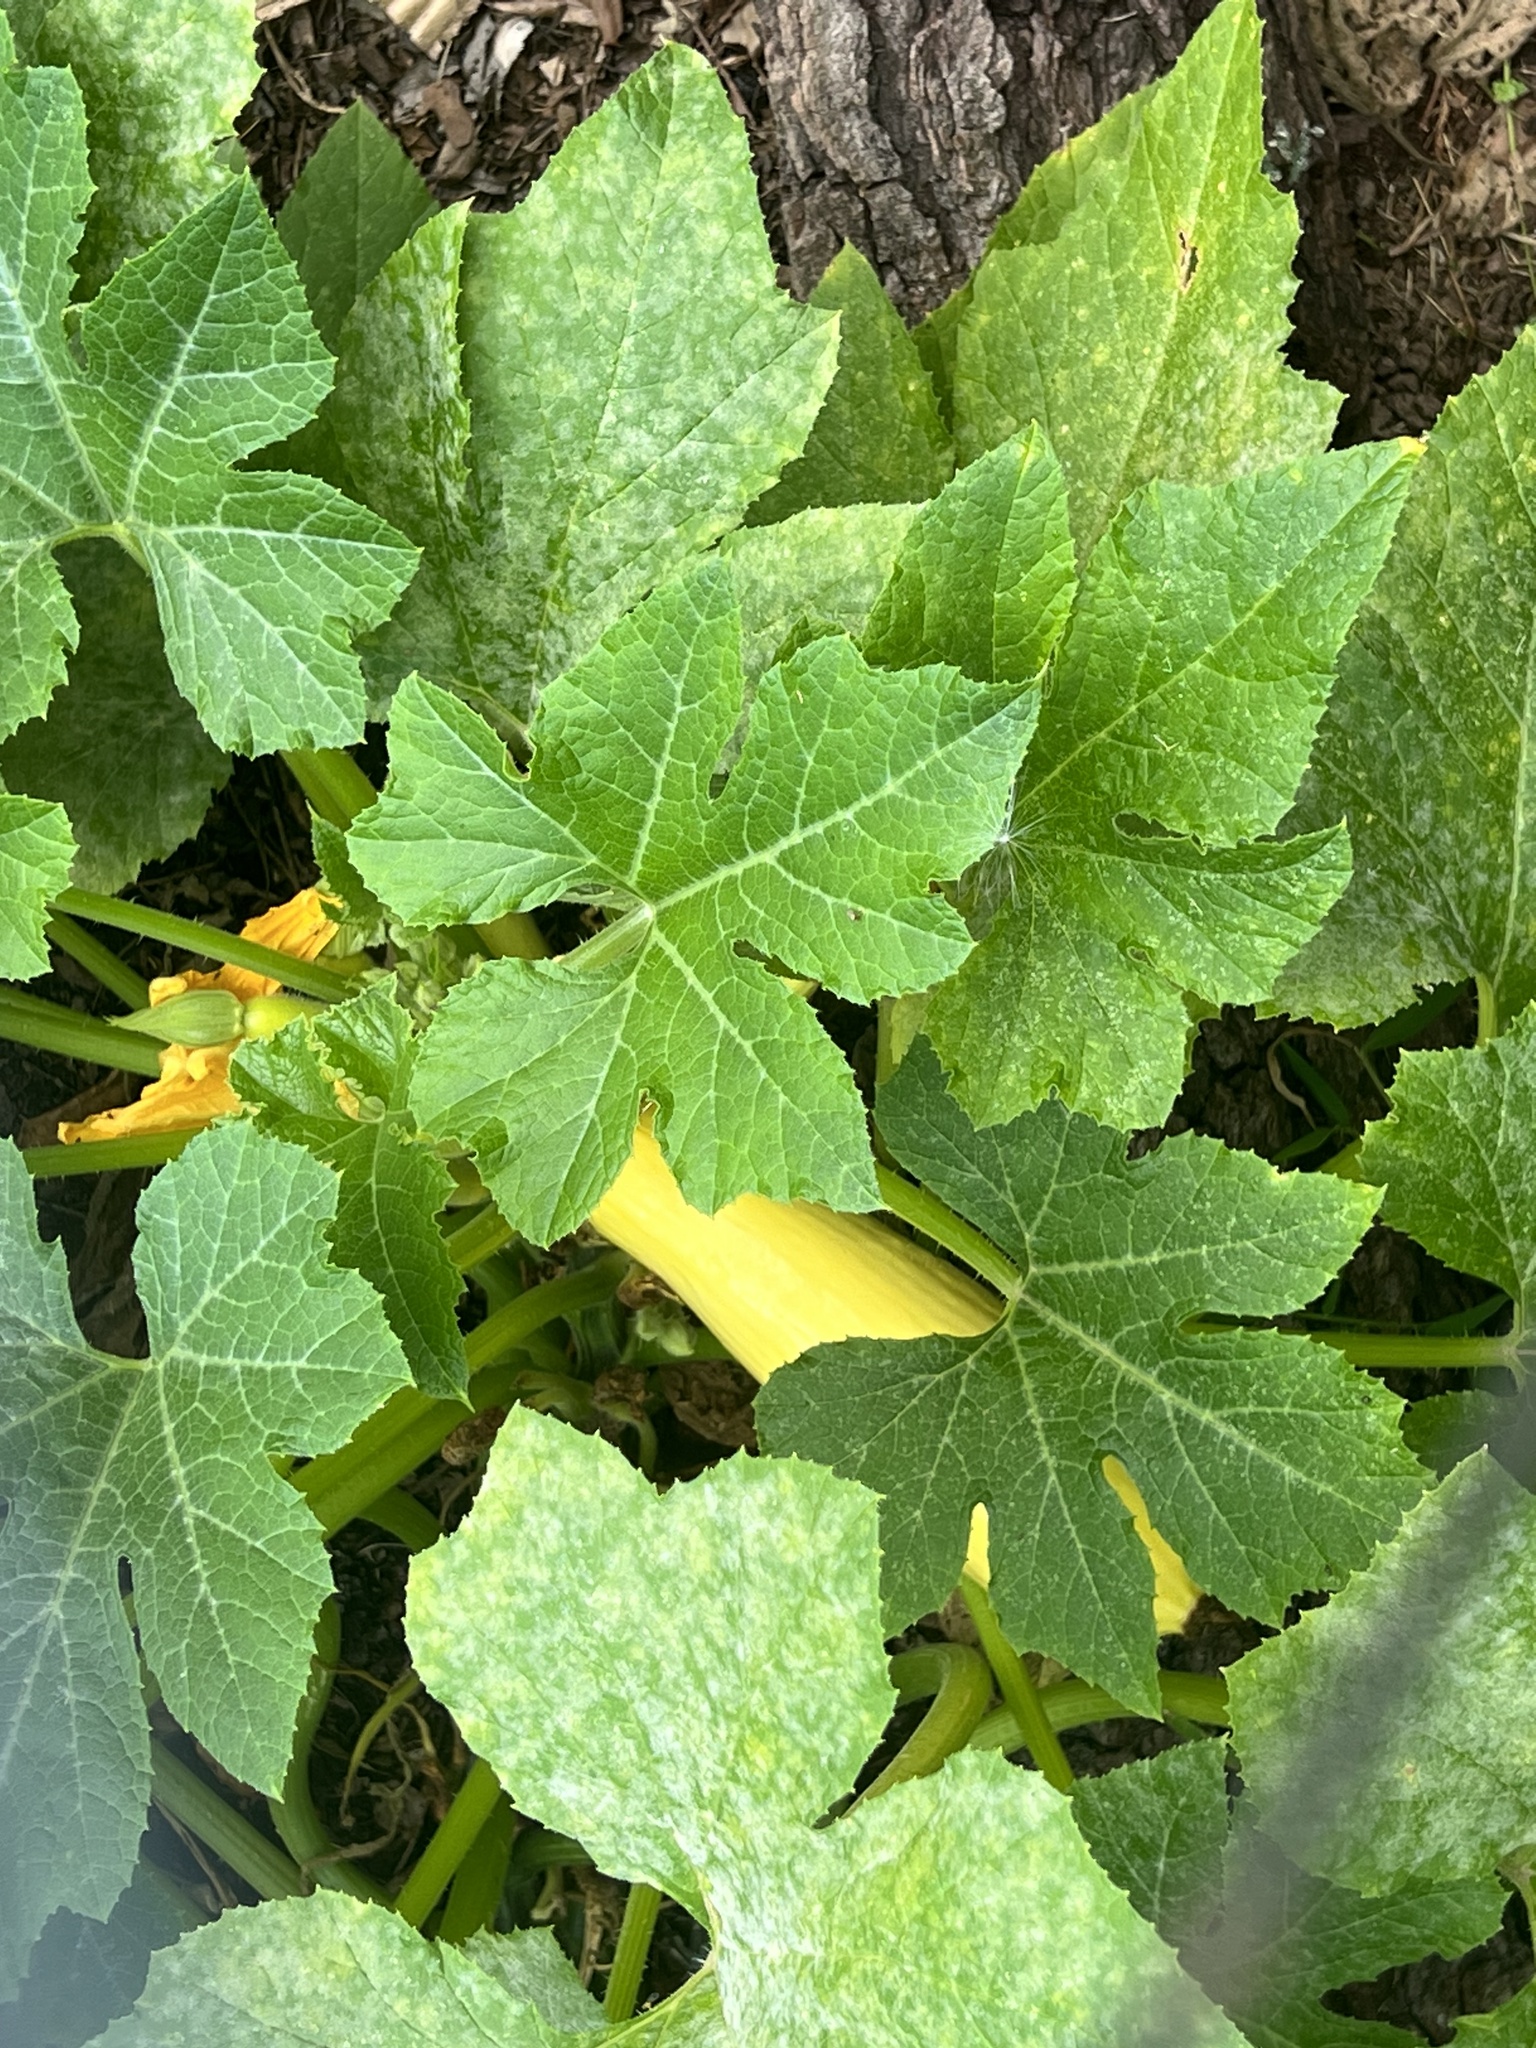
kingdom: Plantae
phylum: Tracheophyta
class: Magnoliopsida
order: Cucurbitales
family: Cucurbitaceae
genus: Cucurbita
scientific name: Cucurbita pepo
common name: Marrow
